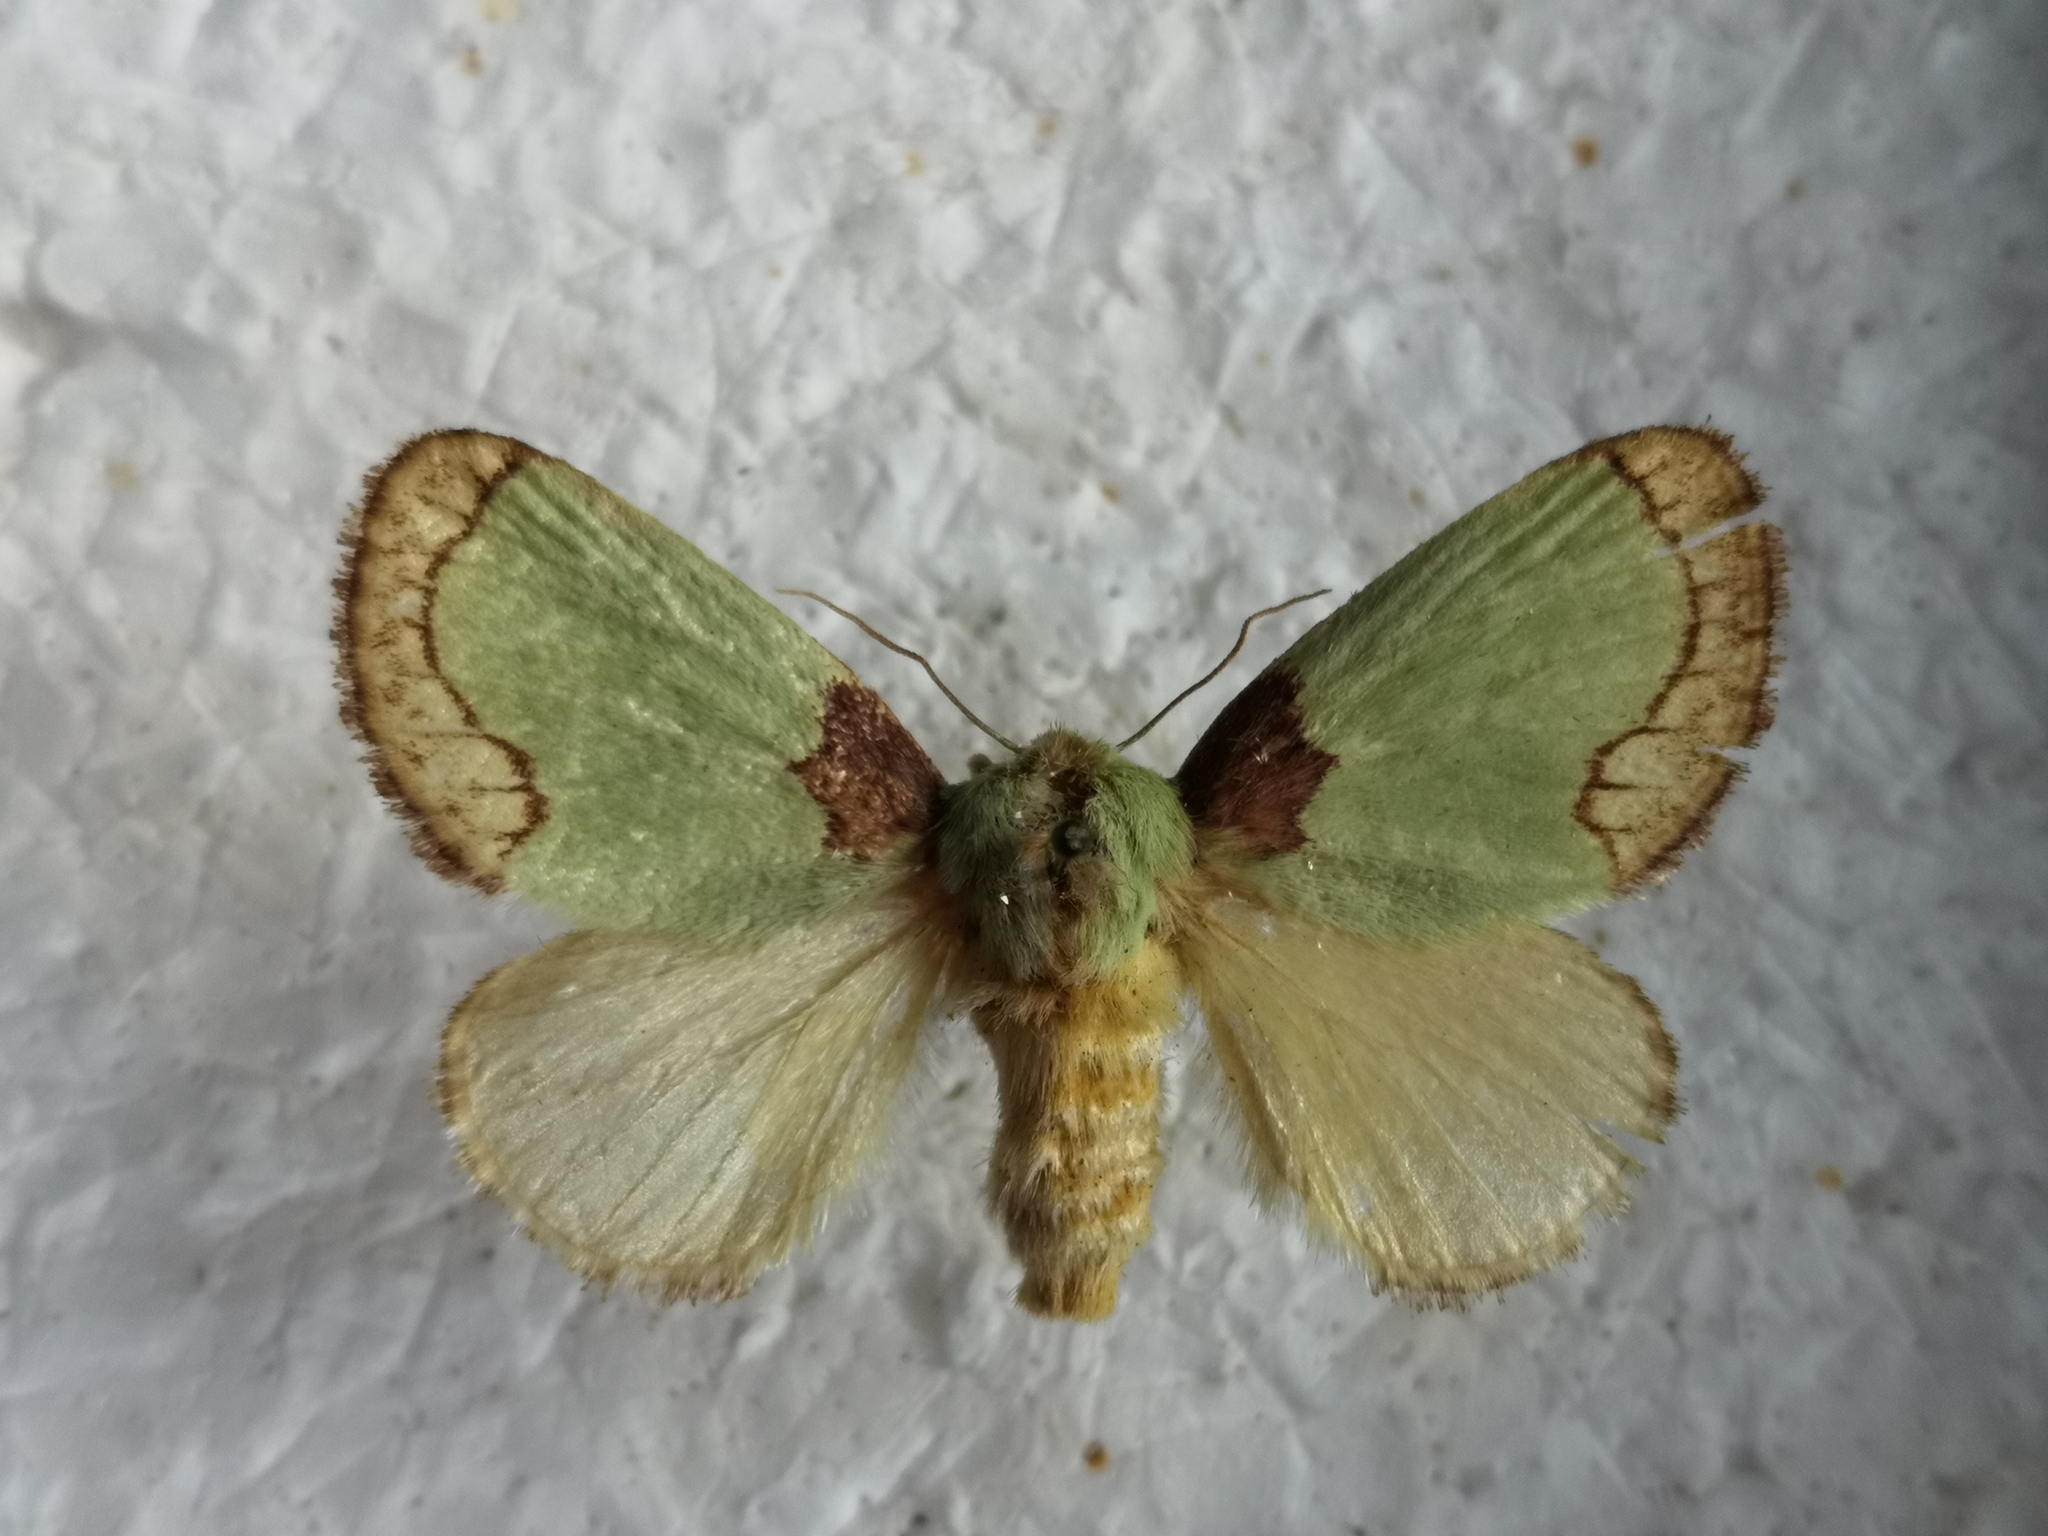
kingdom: Animalia
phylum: Arthropoda
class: Insecta
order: Lepidoptera
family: Limacodidae
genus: Parasa
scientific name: Parasa consocia
